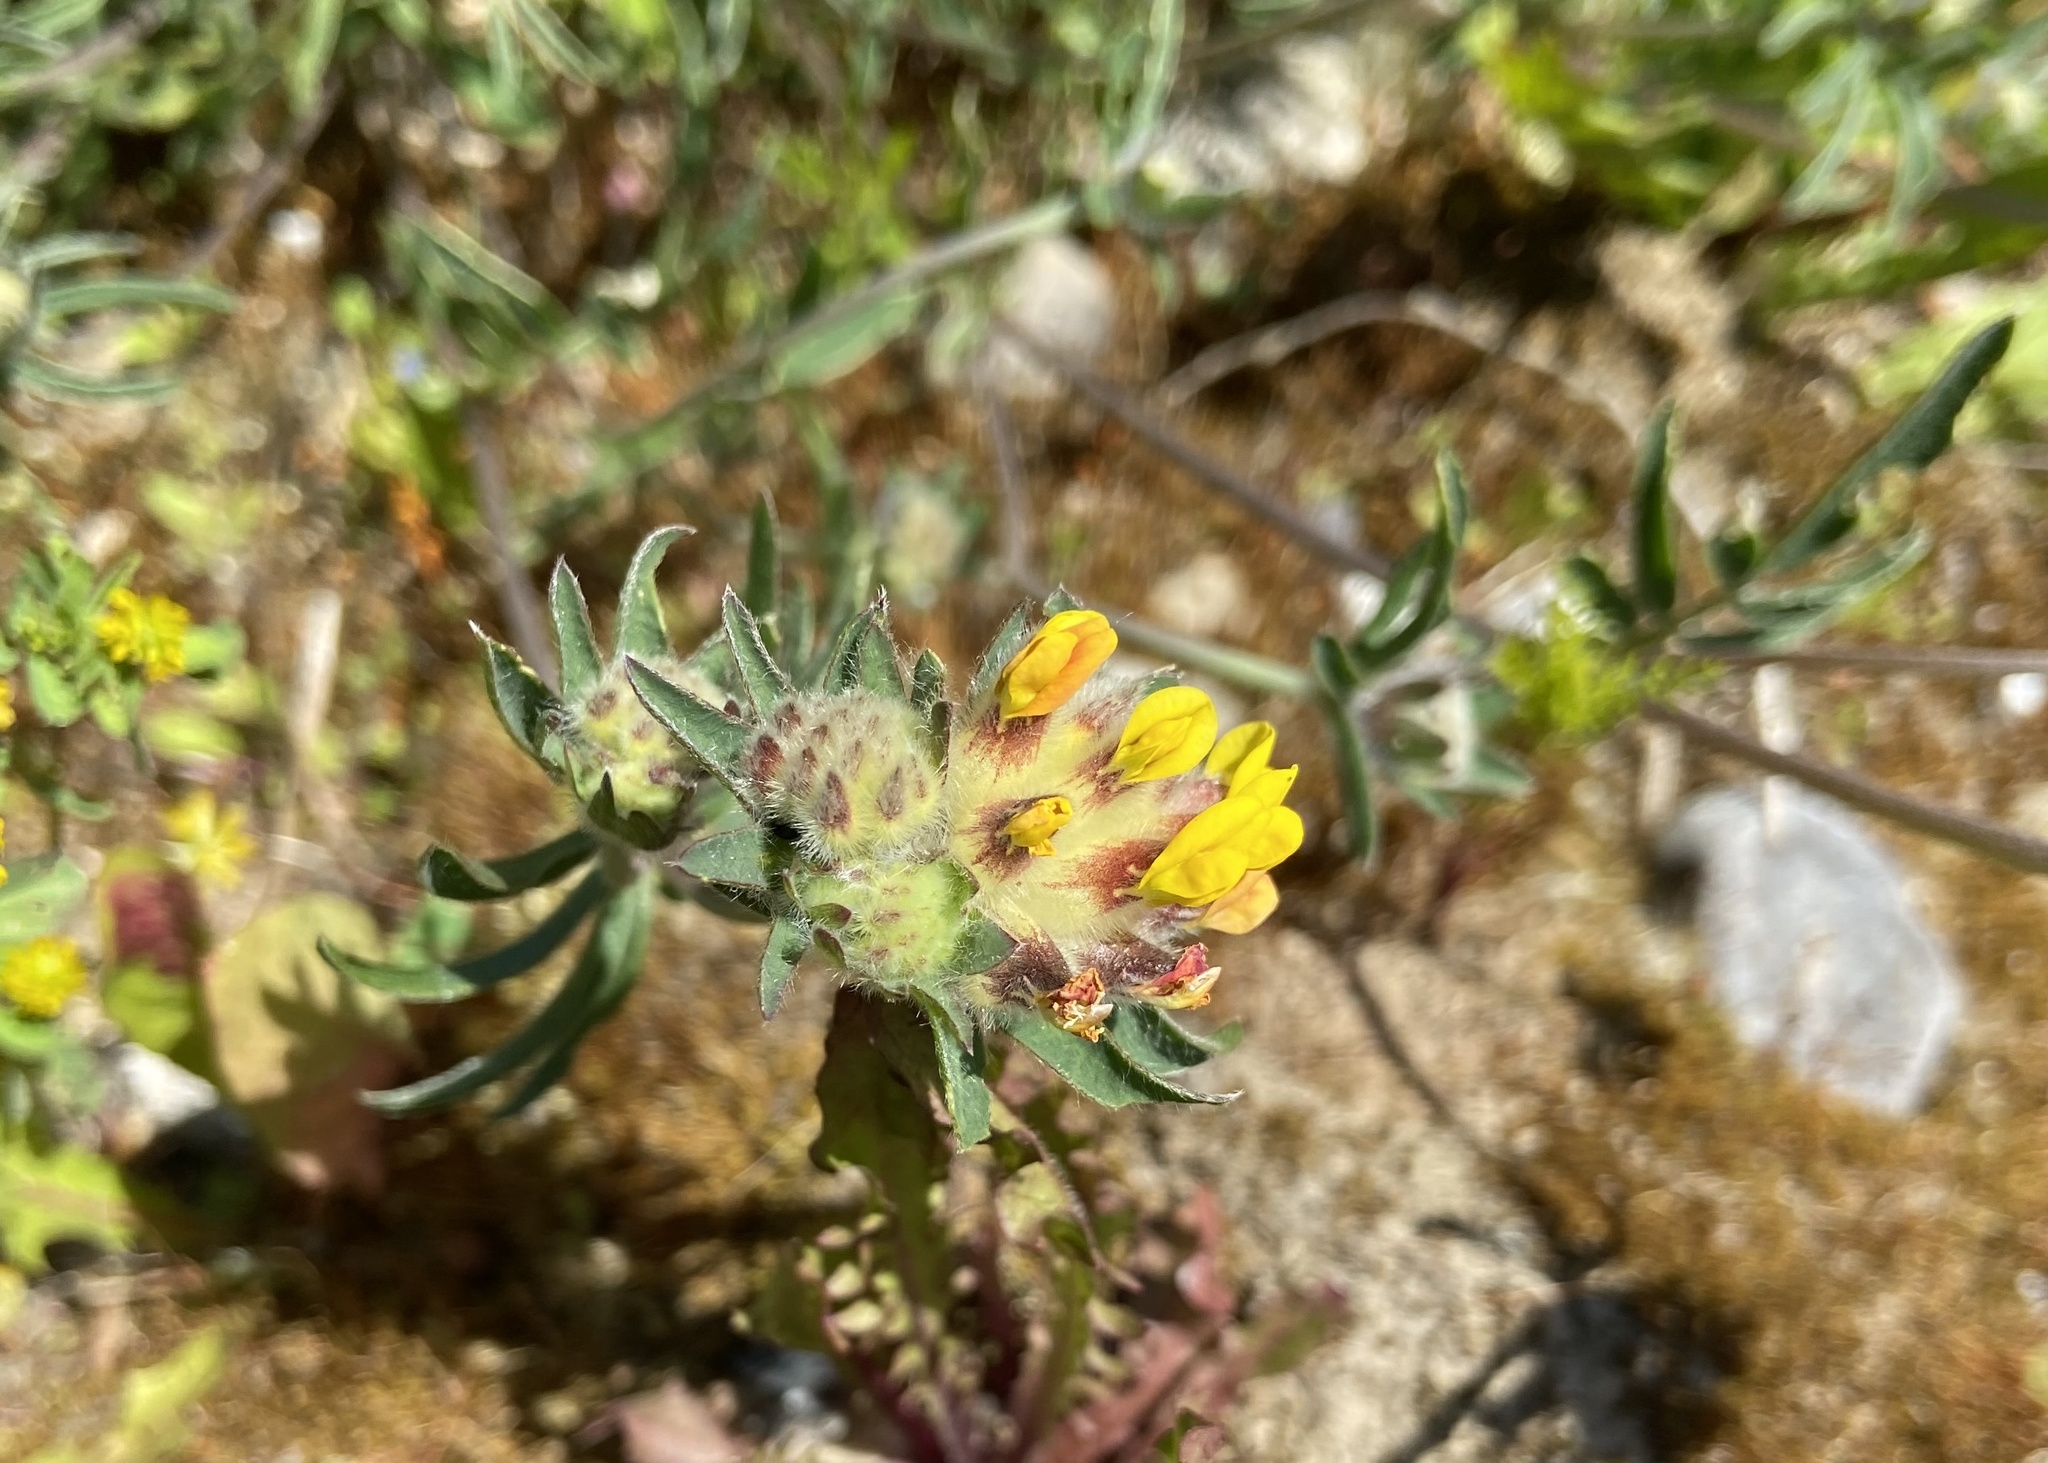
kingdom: Plantae
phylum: Tracheophyta
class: Magnoliopsida
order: Fabales
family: Fabaceae
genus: Anthyllis
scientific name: Anthyllis vulneraria
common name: Kidney vetch
